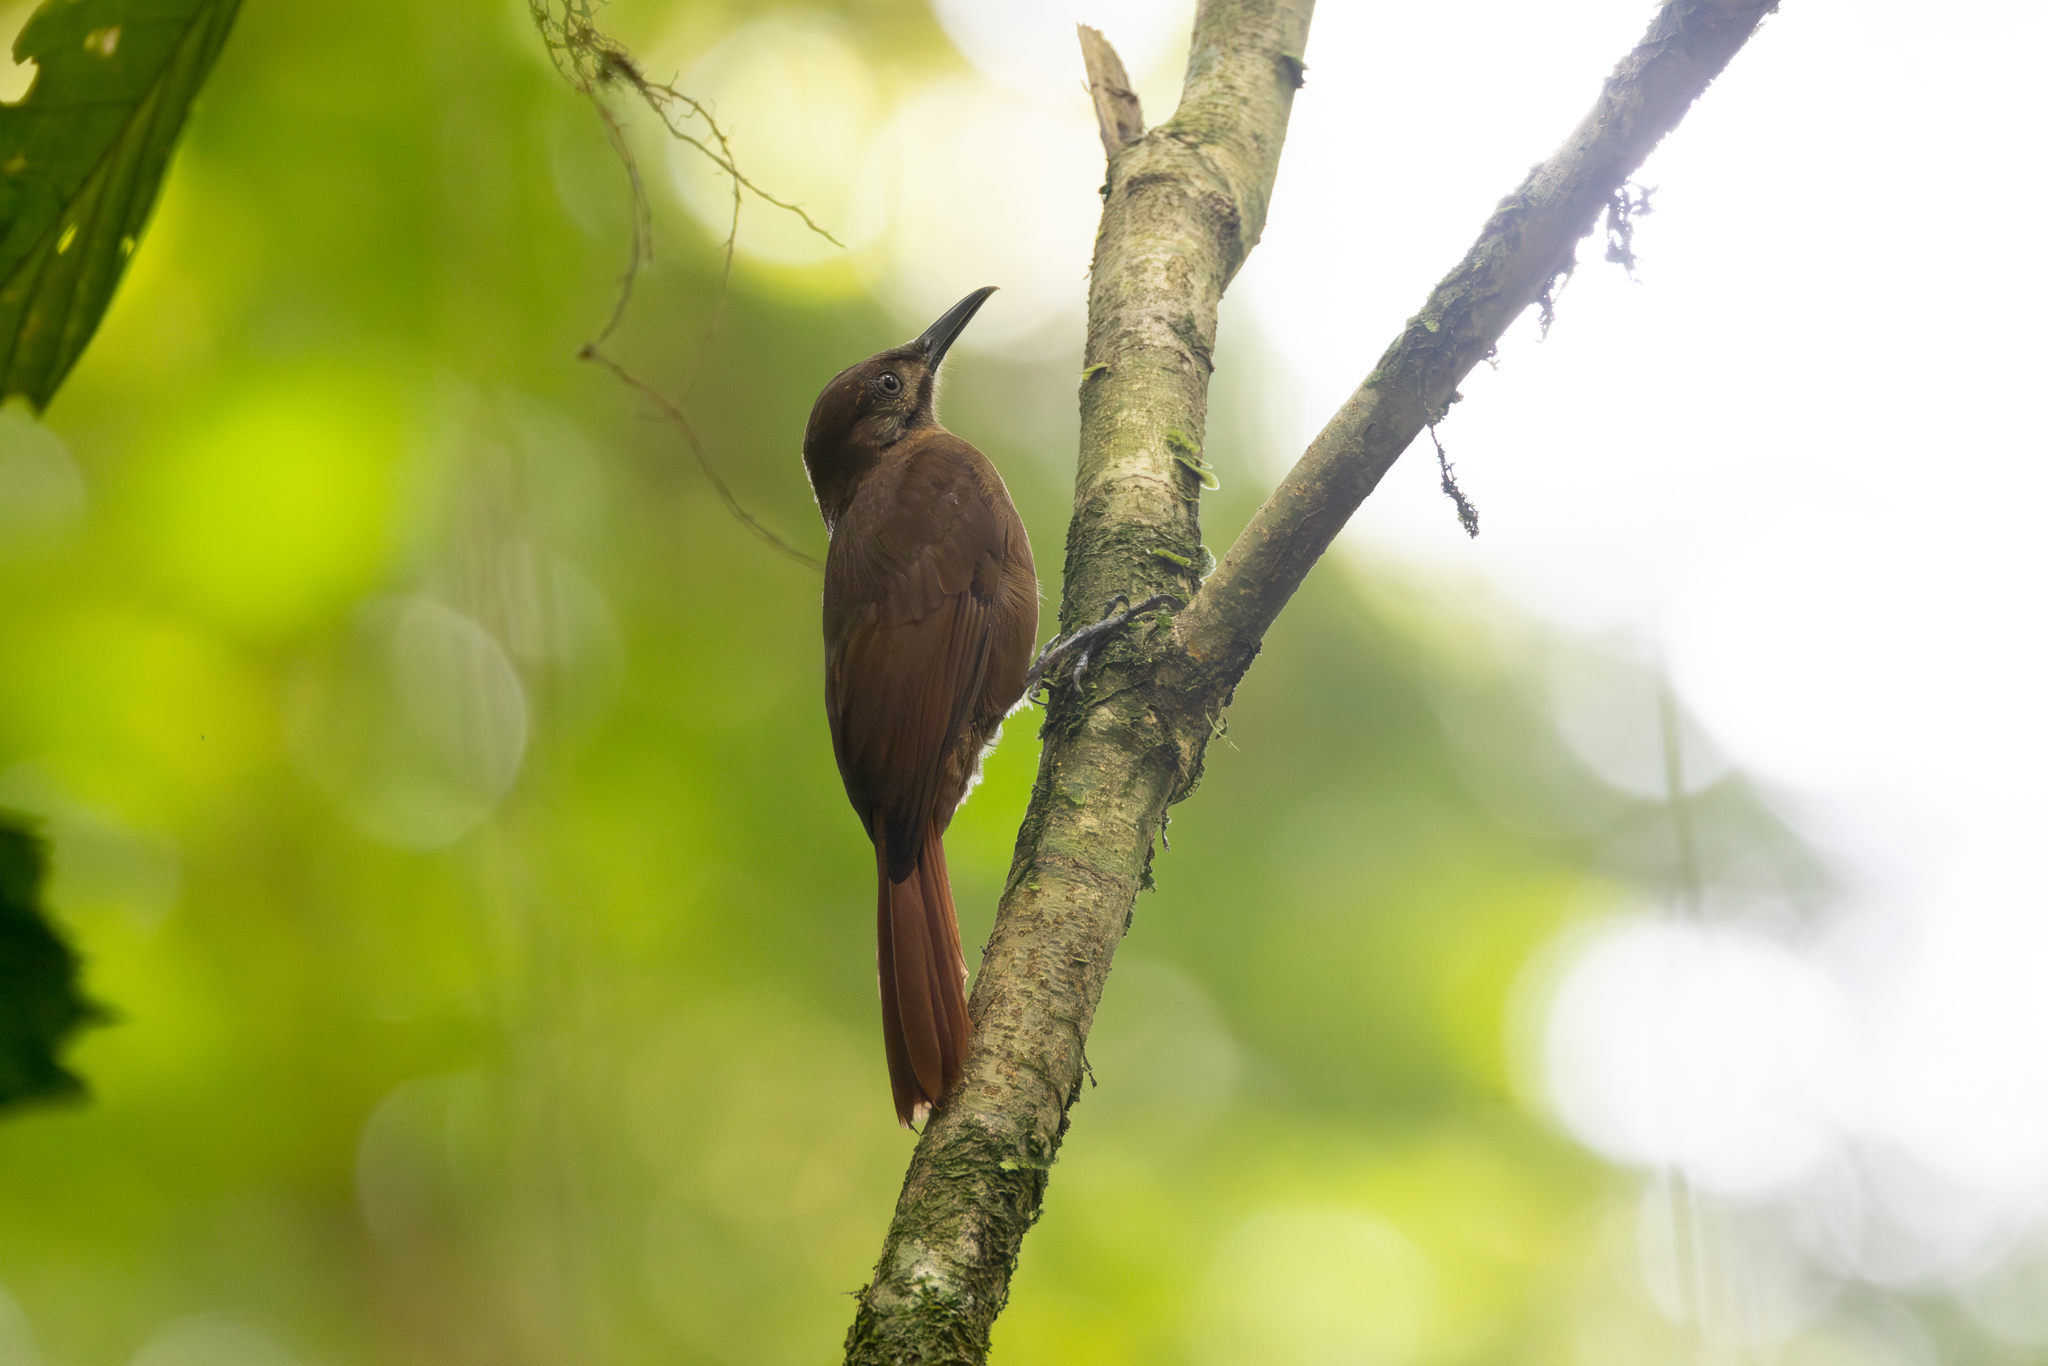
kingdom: Animalia
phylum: Chordata
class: Aves
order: Passeriformes
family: Furnariidae
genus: Dendrocincla
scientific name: Dendrocincla fuliginosa
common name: Plain-brown woodcreeper
